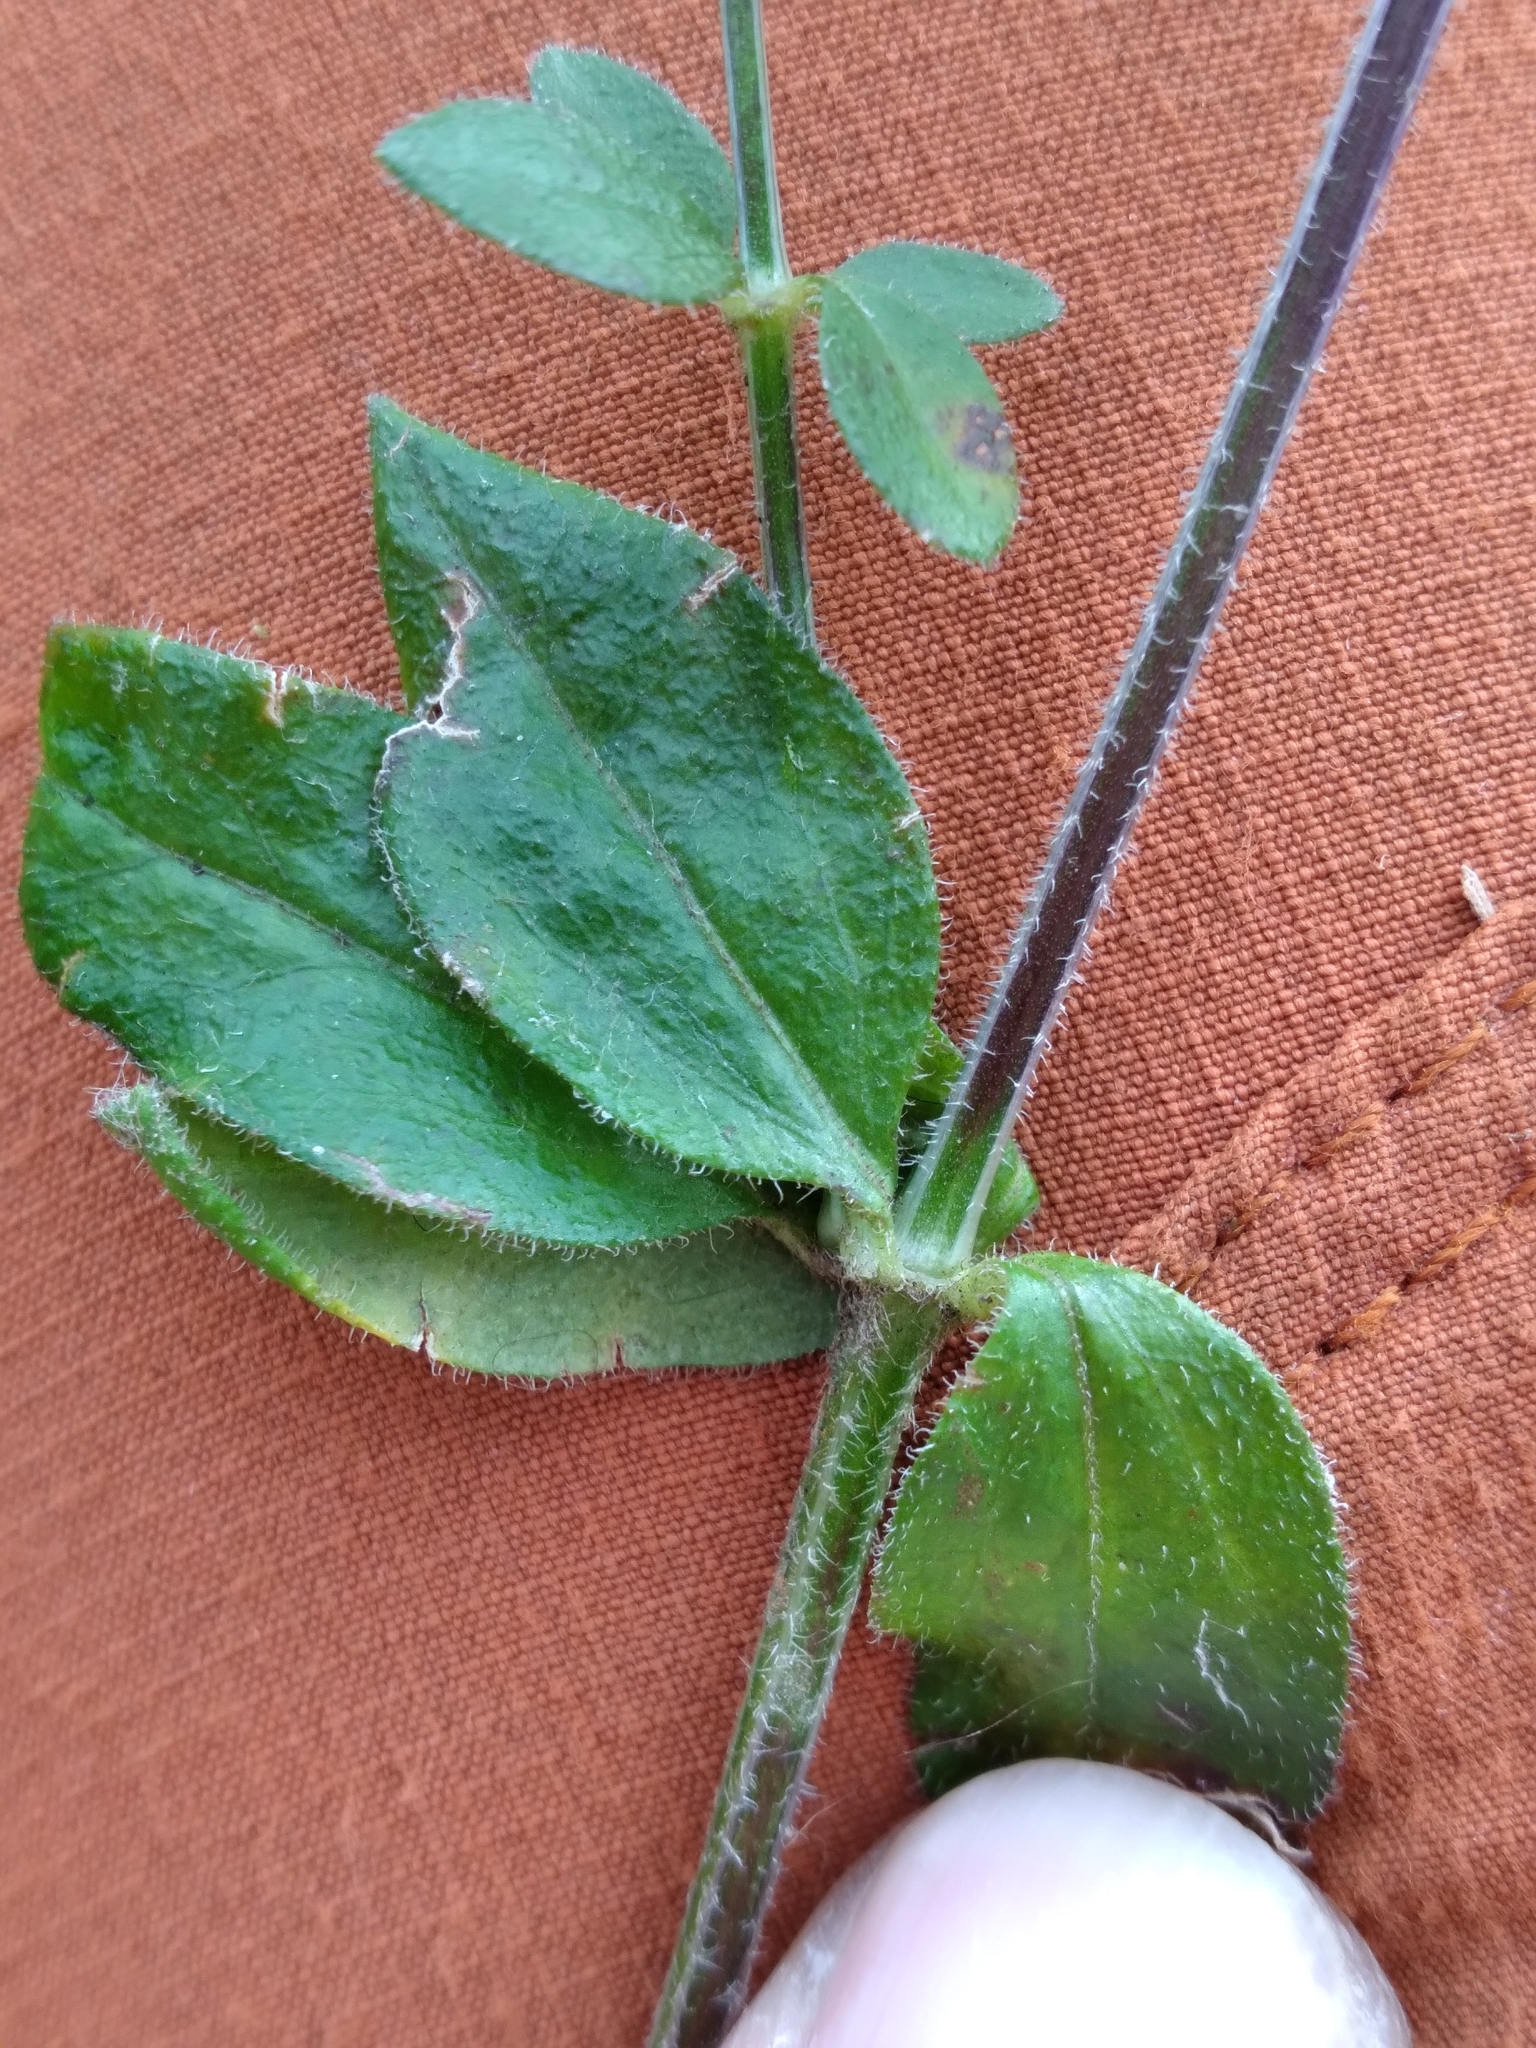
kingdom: Plantae
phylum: Tracheophyta
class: Magnoliopsida
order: Gentianales
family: Rubiaceae
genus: Galium
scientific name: Galium pilosum
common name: Hairy bedstraw
